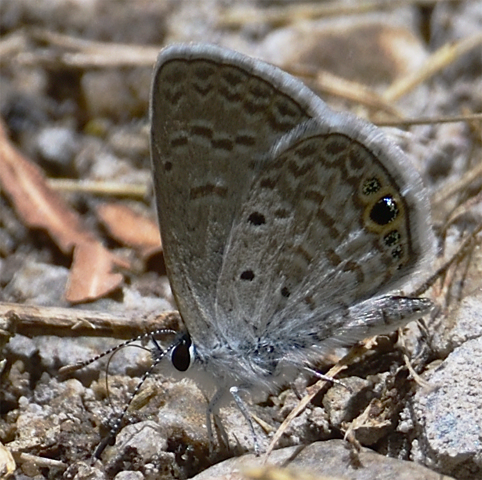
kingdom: Animalia
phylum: Arthropoda
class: Insecta
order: Lepidoptera
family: Lycaenidae
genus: Hemiargus
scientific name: Hemiargus ceraunus
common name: Ceraunus blue
